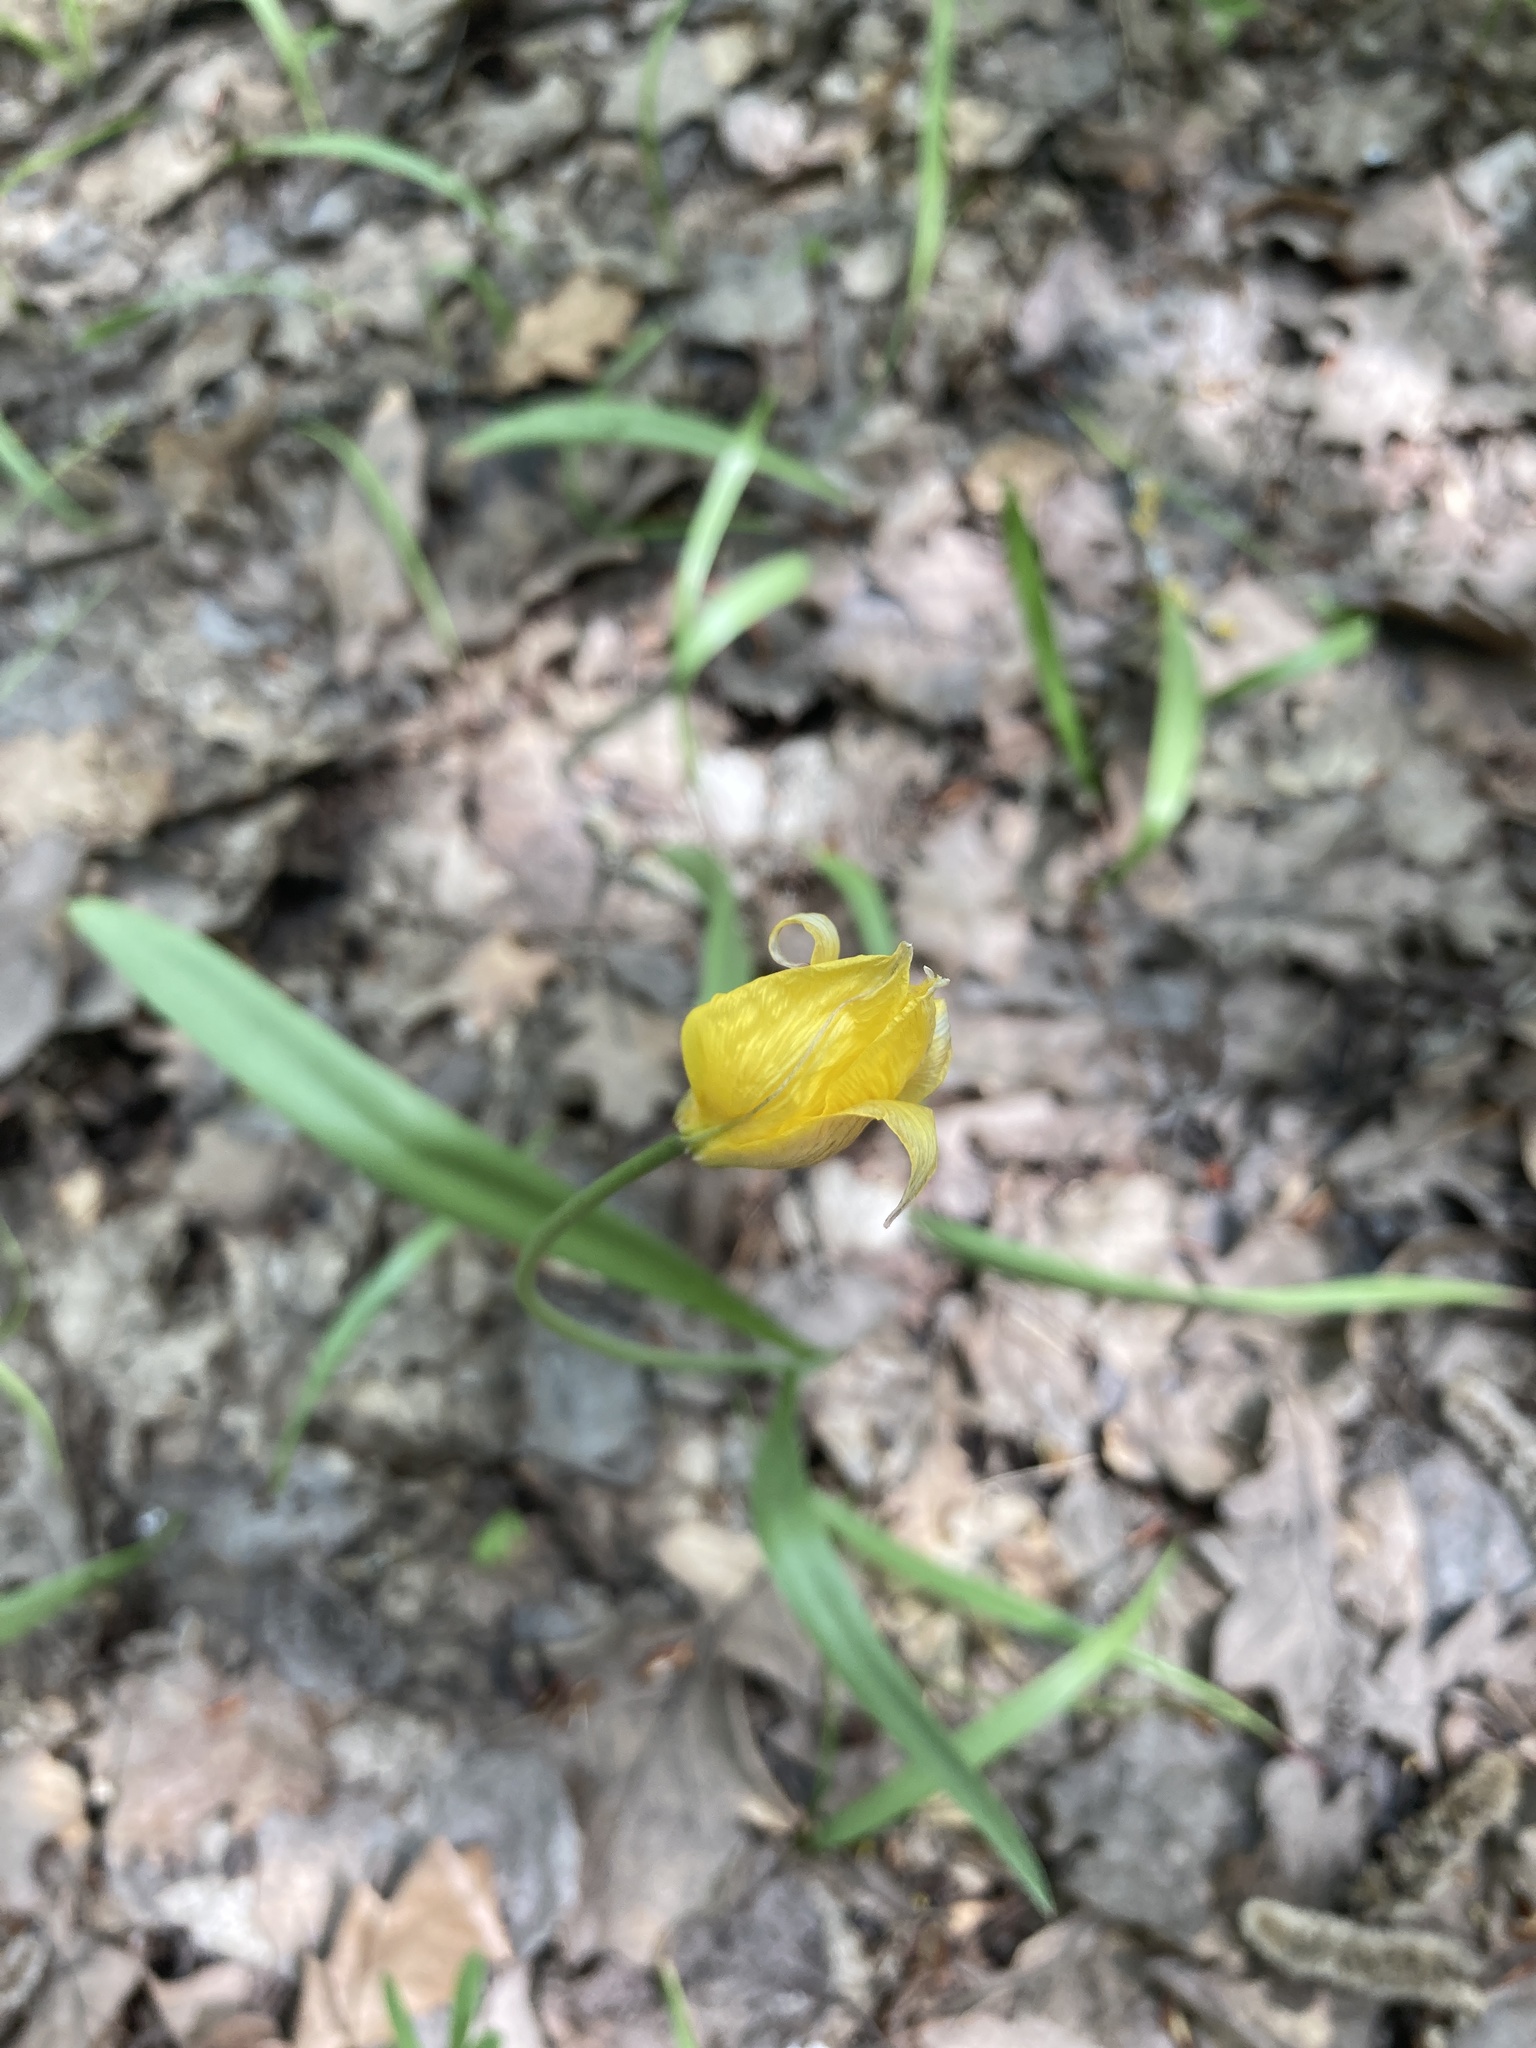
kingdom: Plantae
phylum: Tracheophyta
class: Liliopsida
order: Liliales
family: Liliaceae
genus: Tulipa
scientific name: Tulipa sylvestris
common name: Wild tulip
